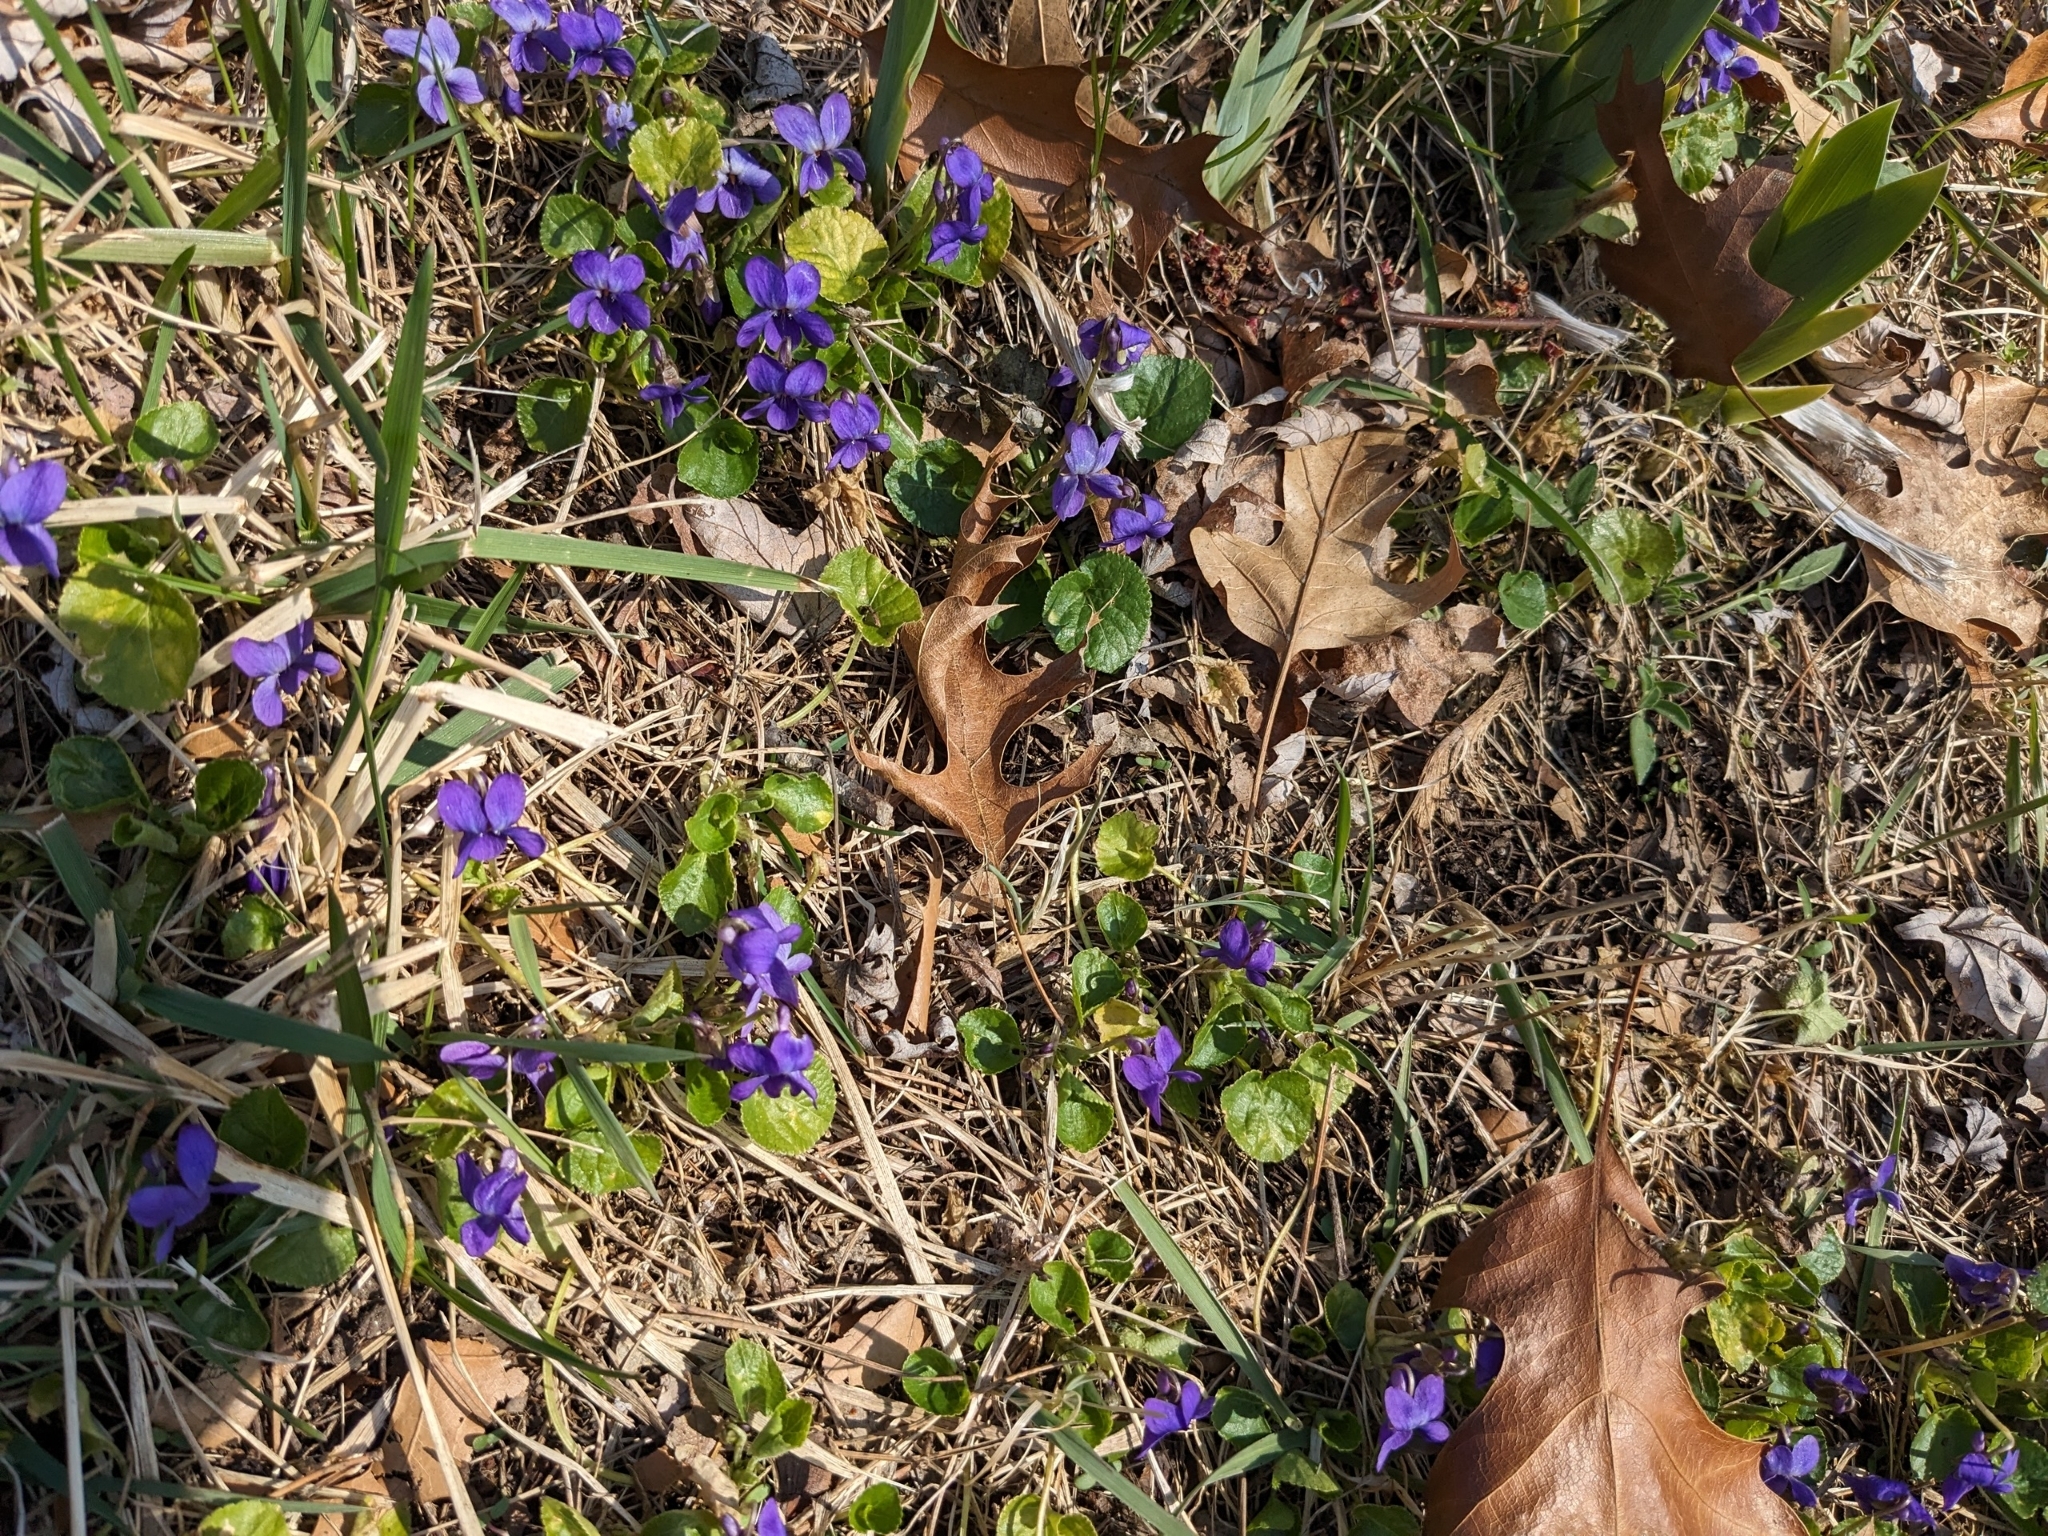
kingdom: Plantae
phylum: Tracheophyta
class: Magnoliopsida
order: Malpighiales
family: Violaceae
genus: Viola
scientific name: Viola odorata
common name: Sweet violet
